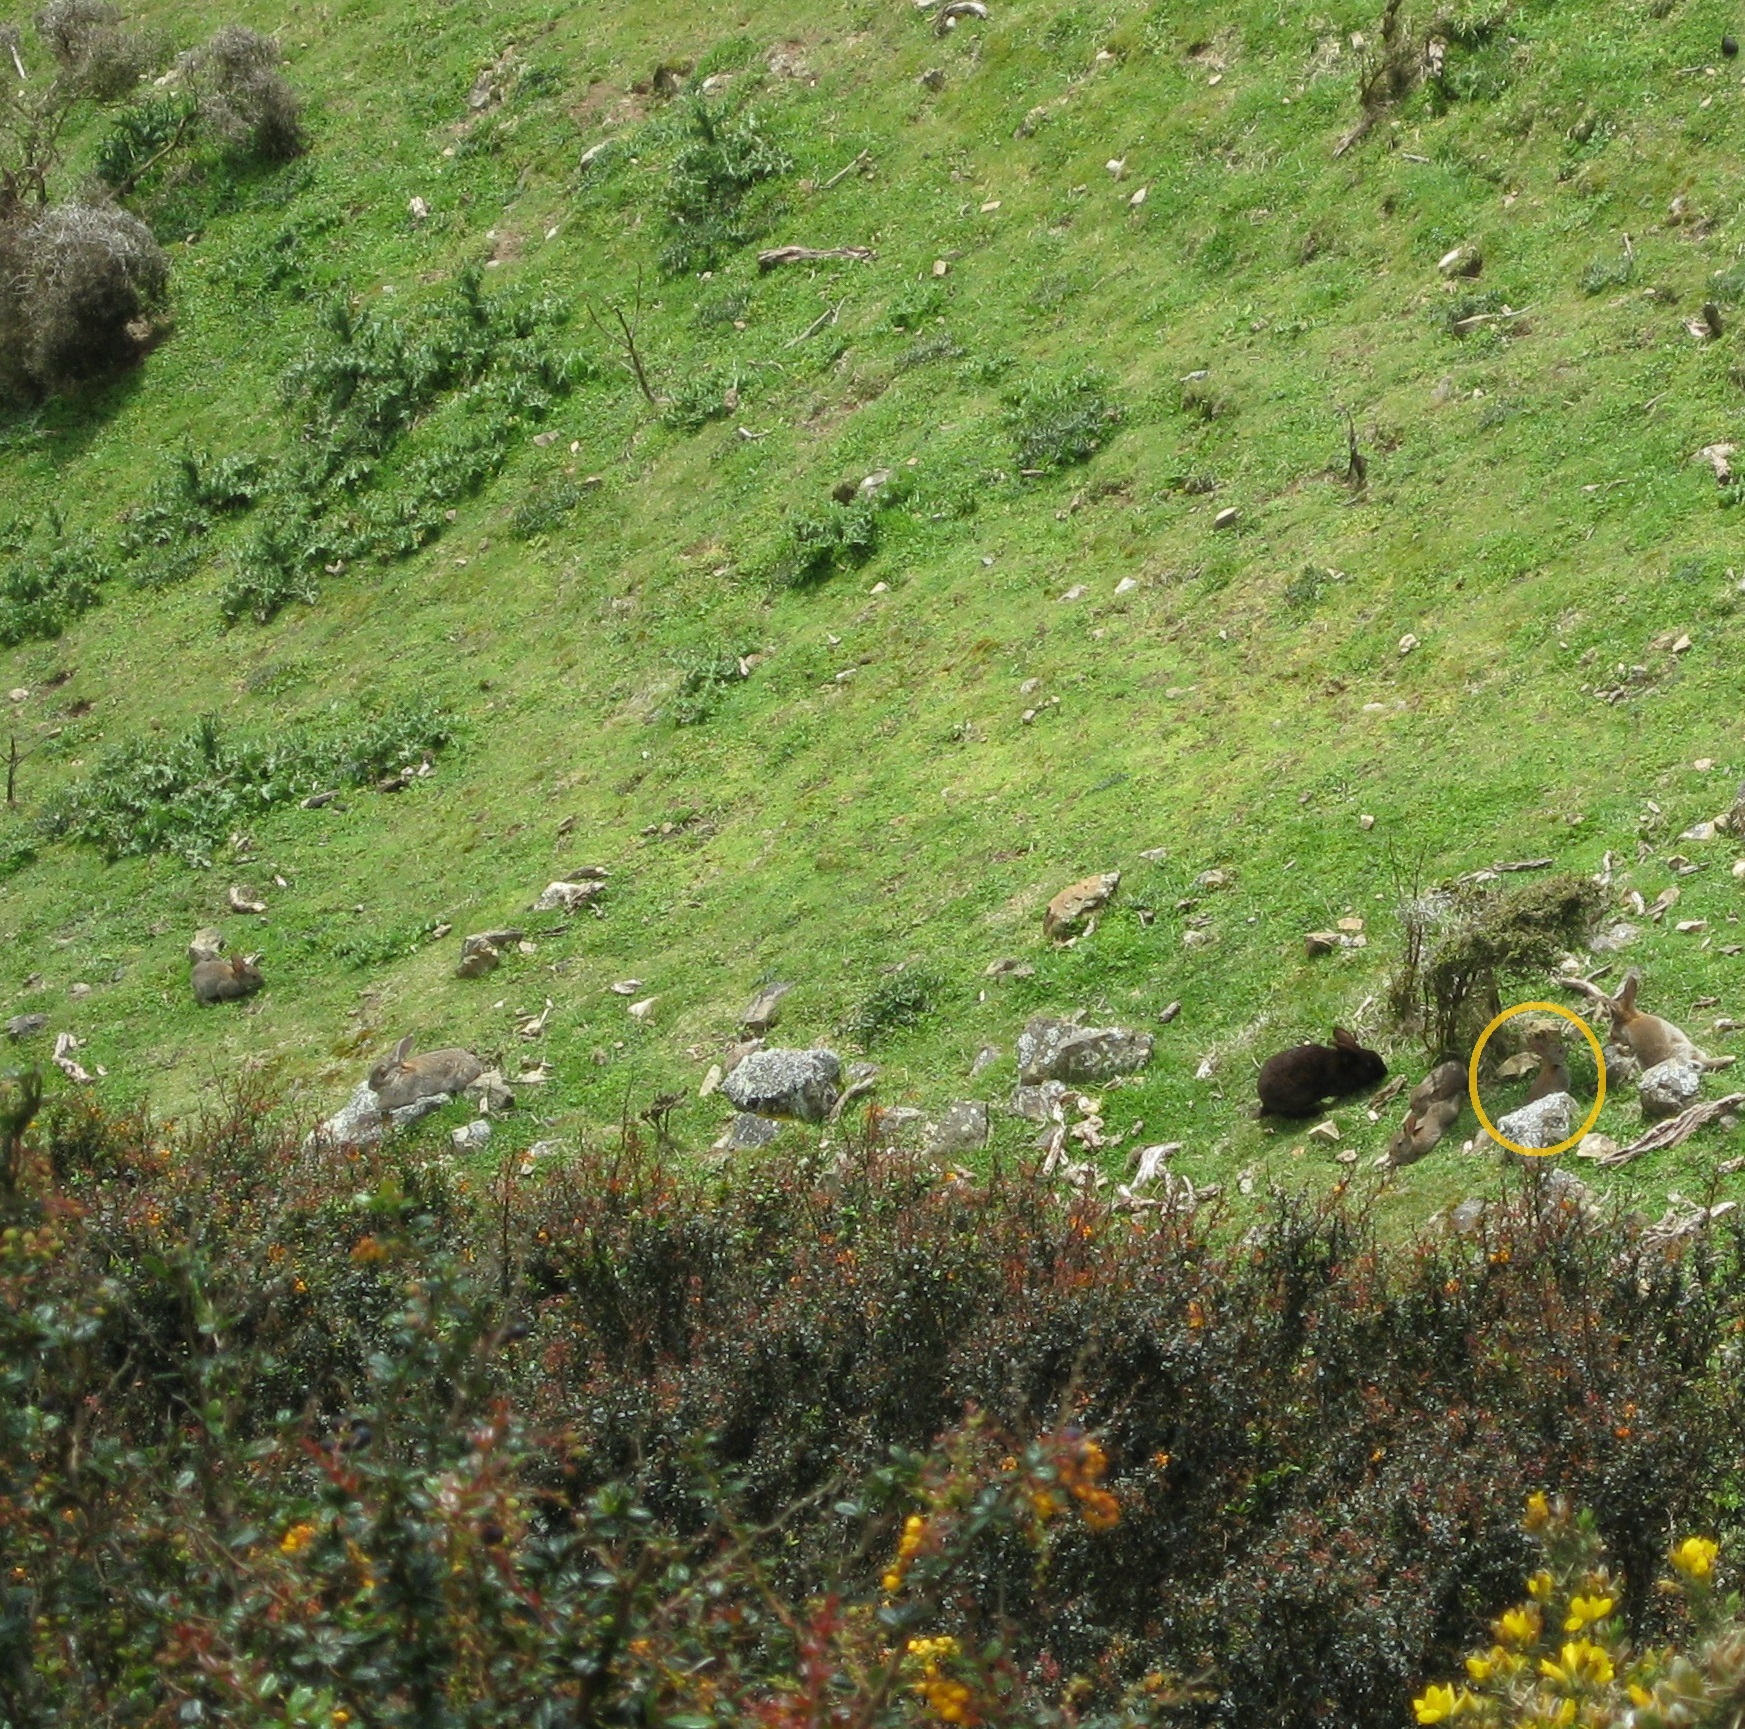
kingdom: Animalia
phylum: Chordata
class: Mammalia
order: Lagomorpha
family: Leporidae
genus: Oryctolagus
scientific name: Oryctolagus cuniculus
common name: European rabbit
